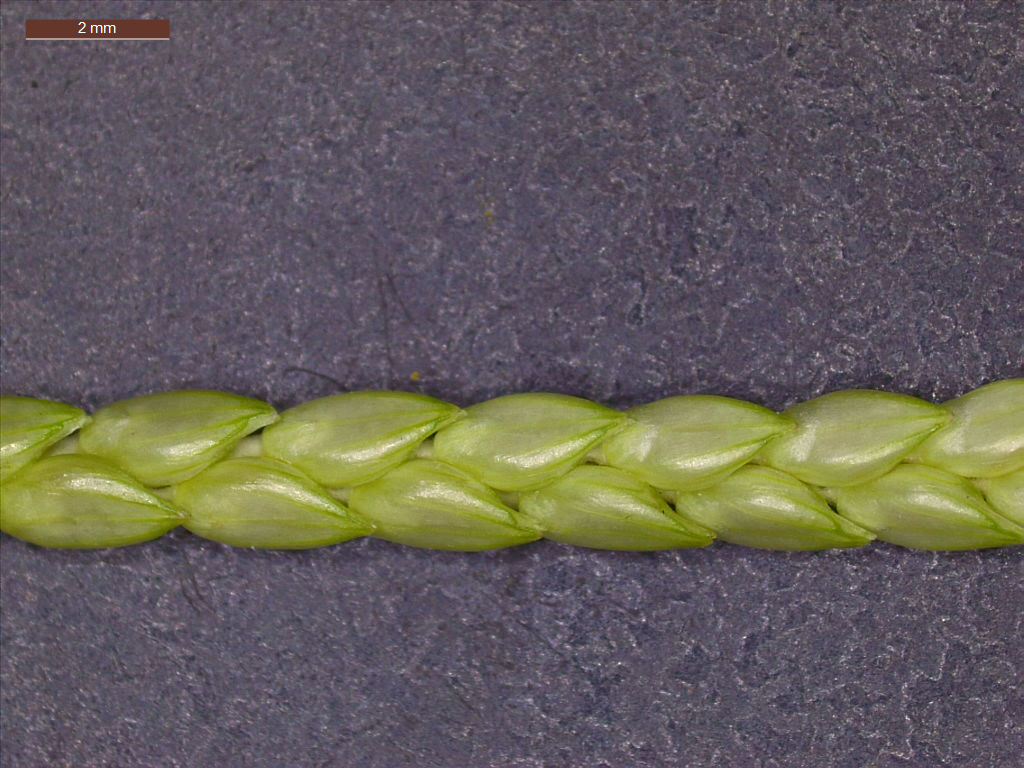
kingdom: Plantae
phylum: Tracheophyta
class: Liliopsida
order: Poales
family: Poaceae
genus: Setaria
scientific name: Setaria geminata
